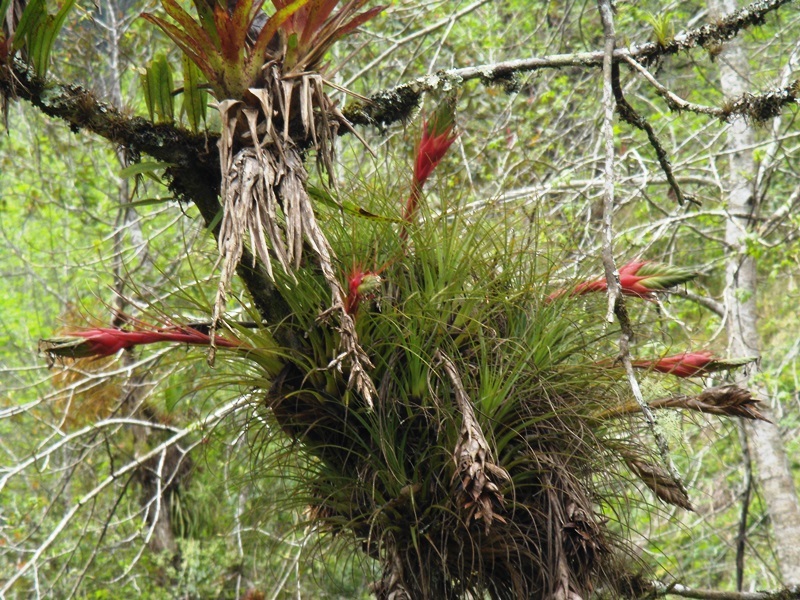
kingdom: Plantae
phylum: Tracheophyta
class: Liliopsida
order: Poales
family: Bromeliaceae
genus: Tillandsia
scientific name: Tillandsia punctulata
